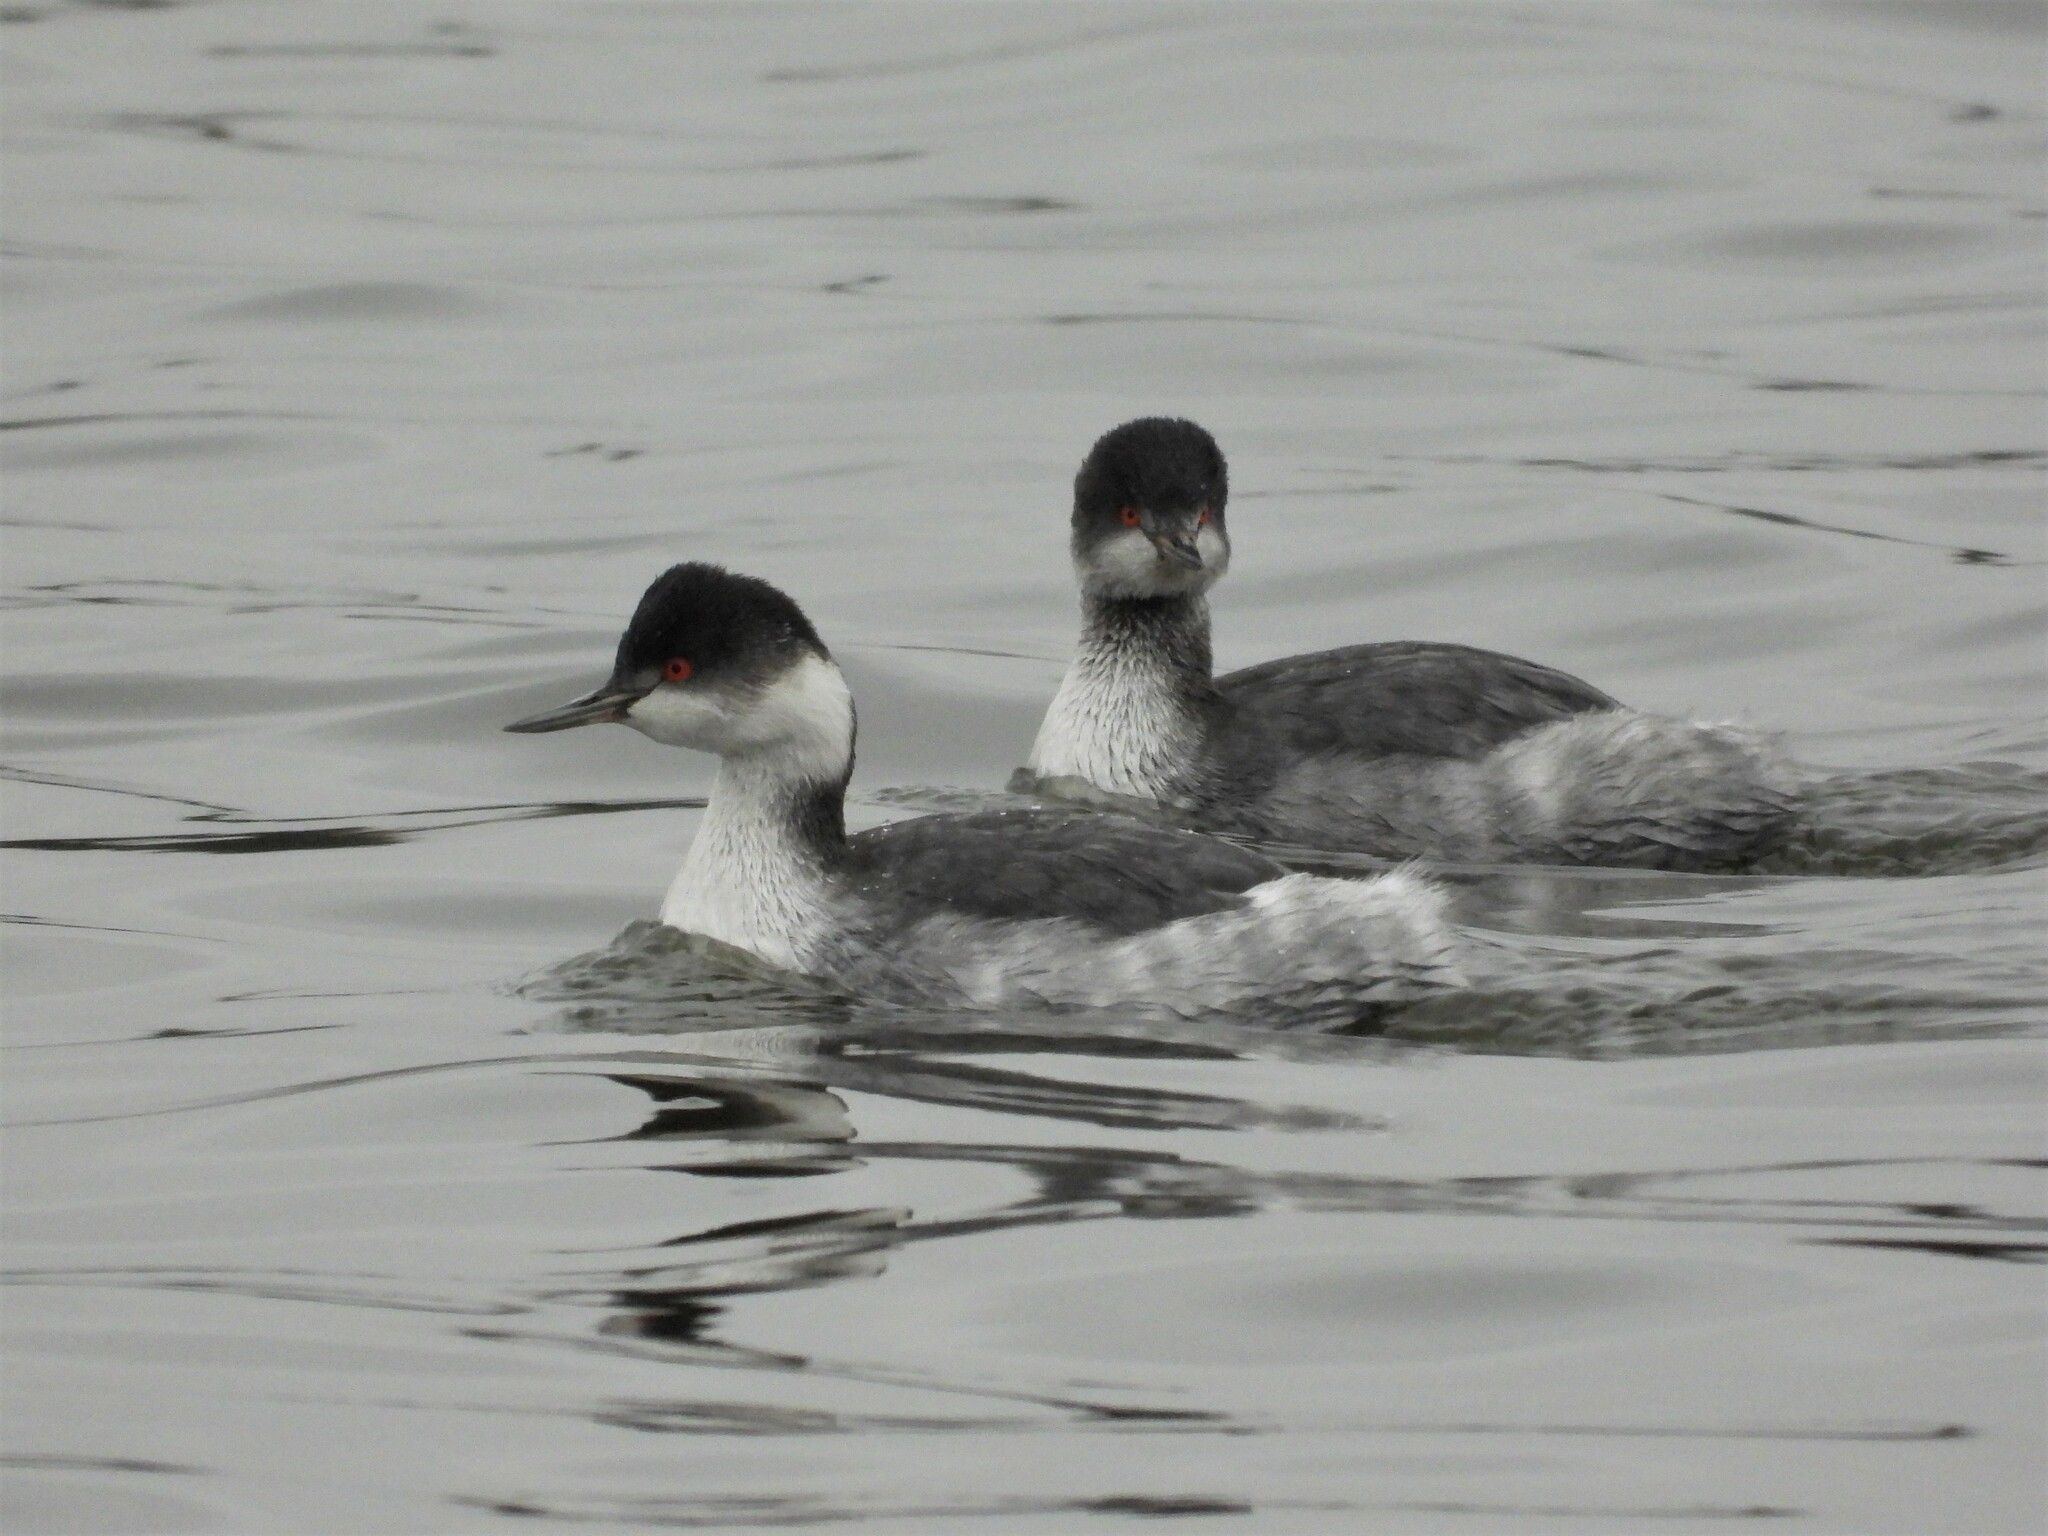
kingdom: Animalia
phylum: Chordata
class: Aves
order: Podicipediformes
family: Podicipedidae
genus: Podiceps
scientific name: Podiceps nigricollis
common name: Black-necked grebe
